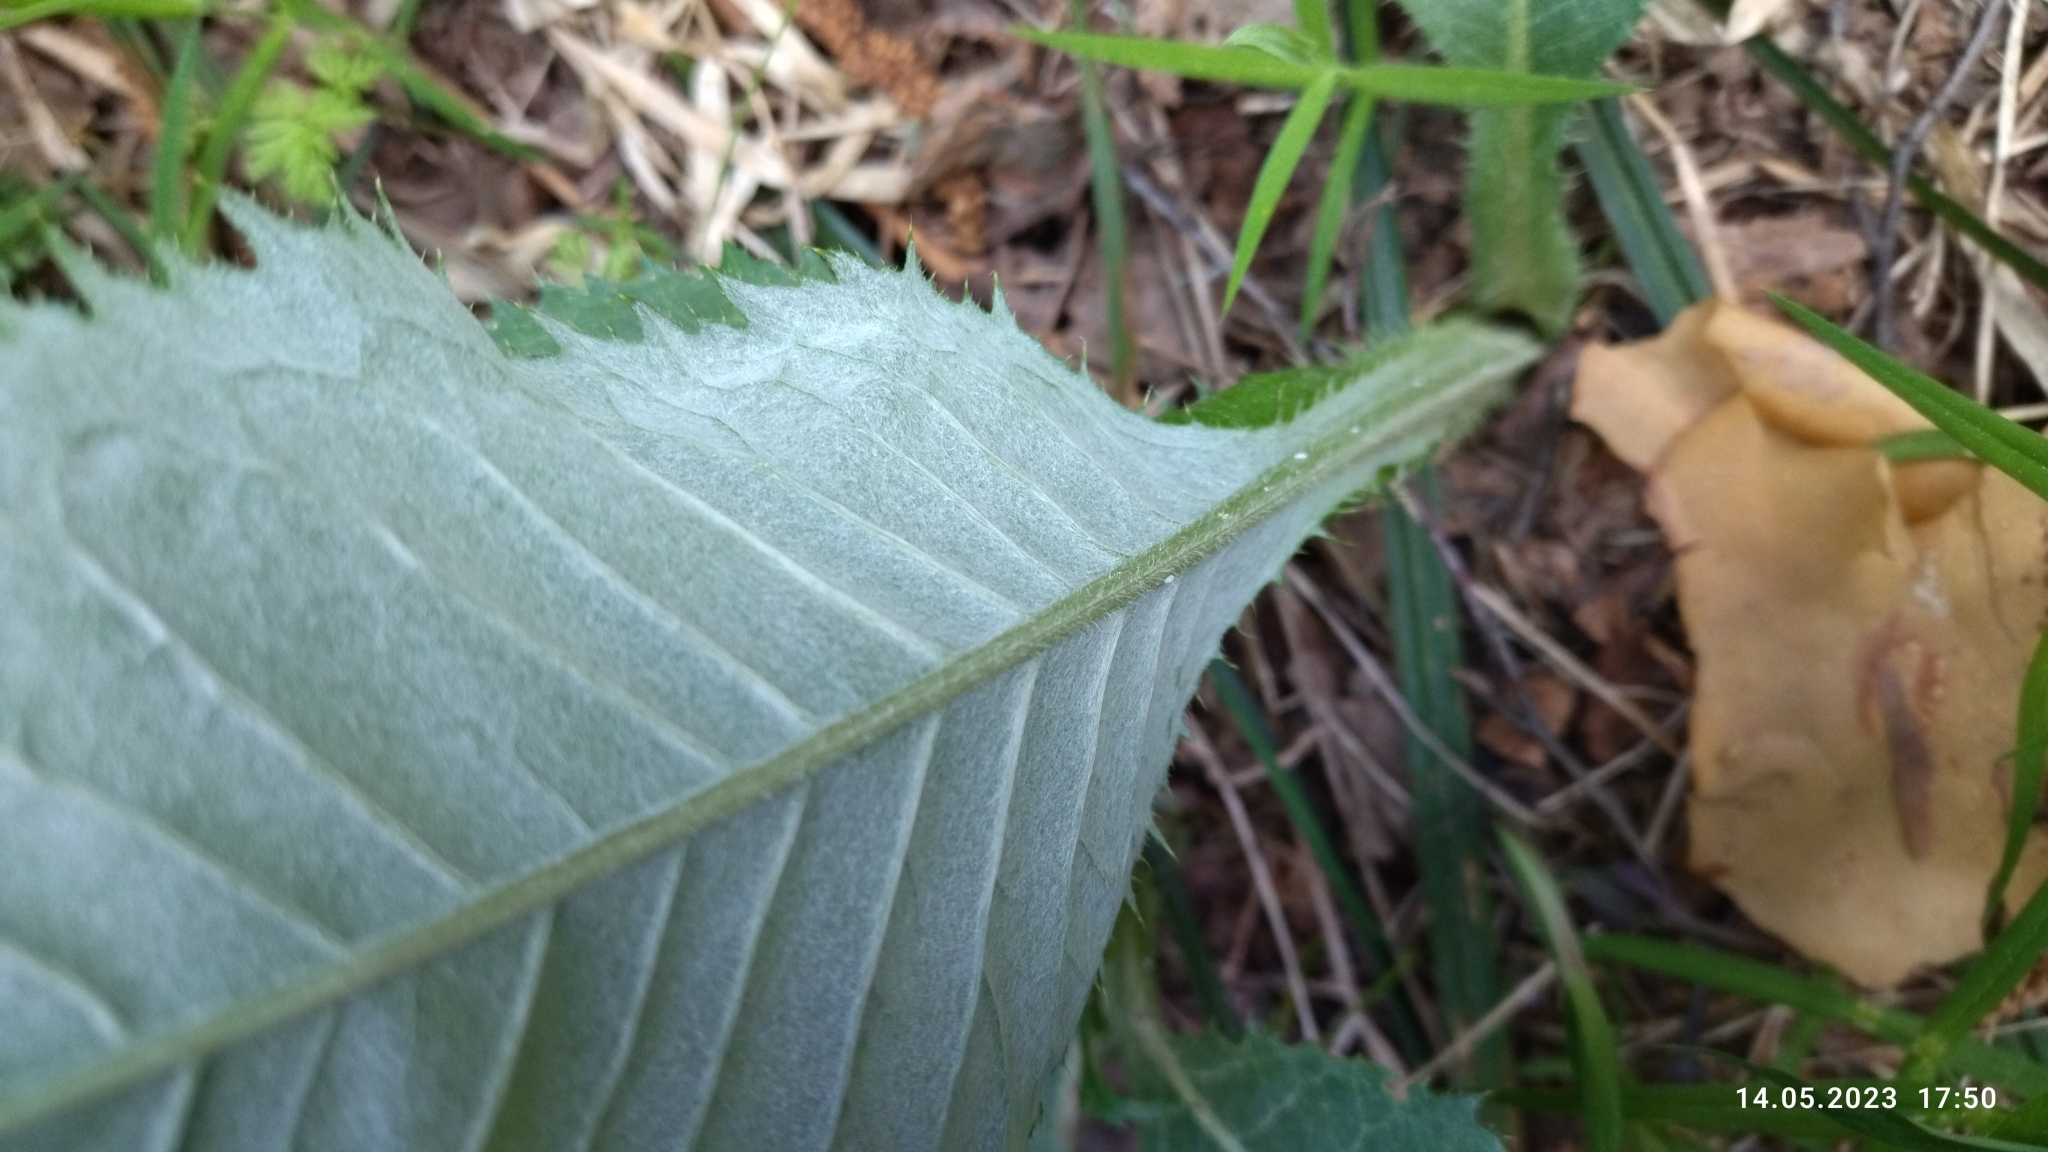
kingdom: Plantae
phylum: Tracheophyta
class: Magnoliopsida
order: Asterales
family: Asteraceae
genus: Cirsium
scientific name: Cirsium heterophyllum
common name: Melancholy thistle
